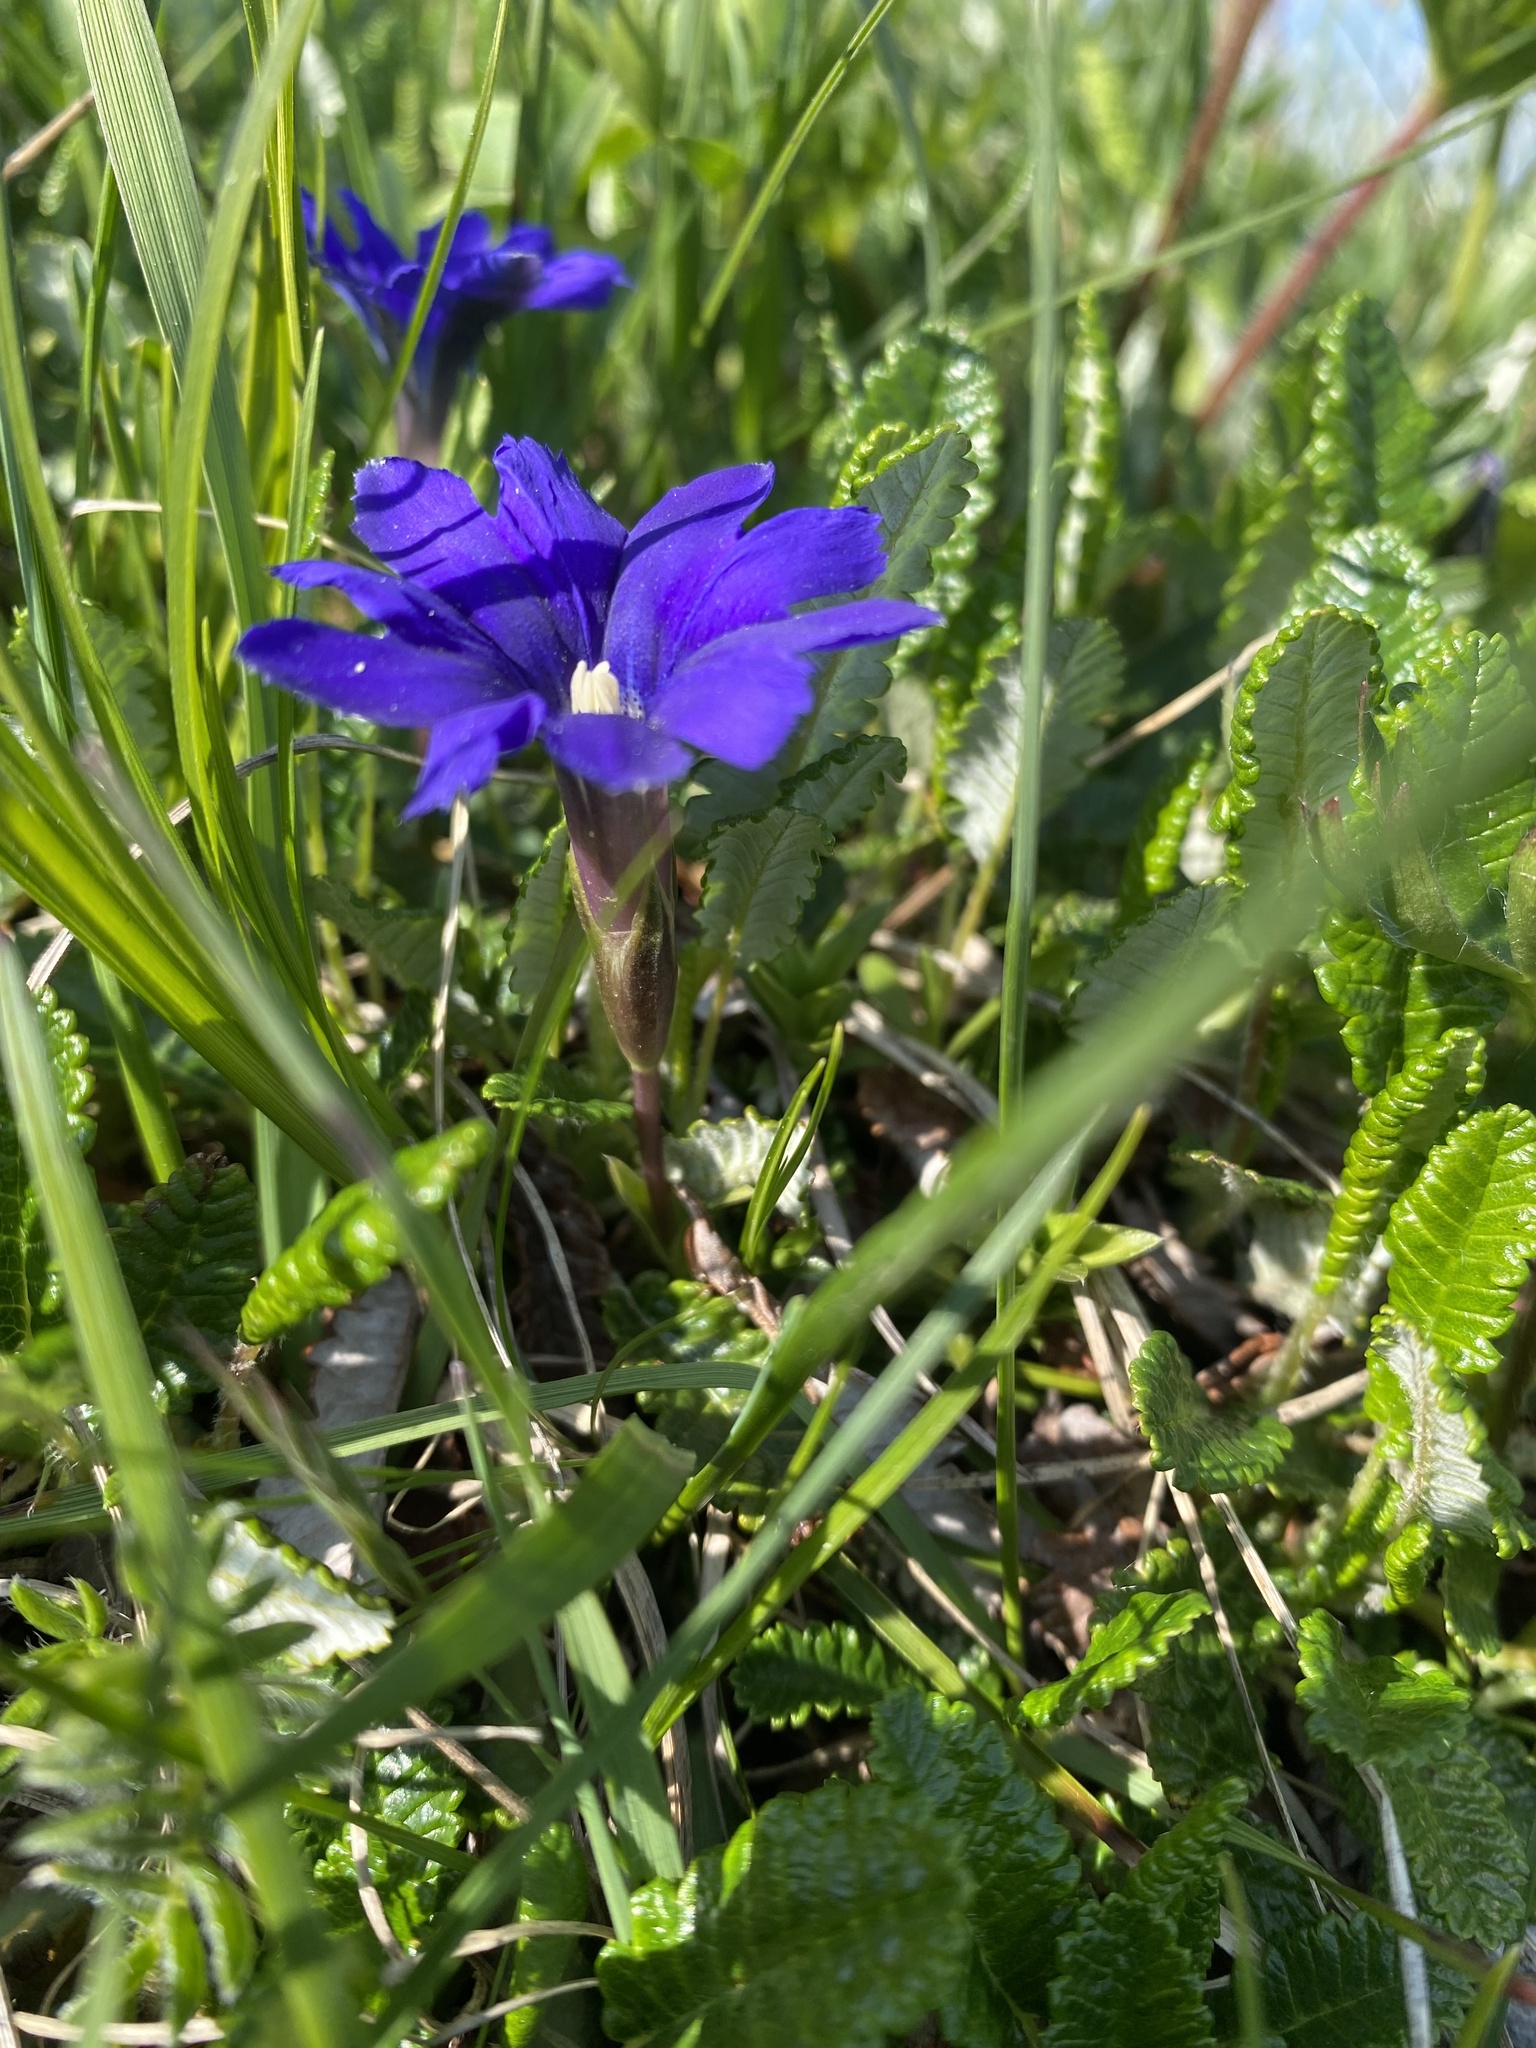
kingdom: Plantae
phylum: Tracheophyta
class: Magnoliopsida
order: Gentianales
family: Gentianaceae
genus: Gentiana
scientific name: Gentiana dshimilensis
